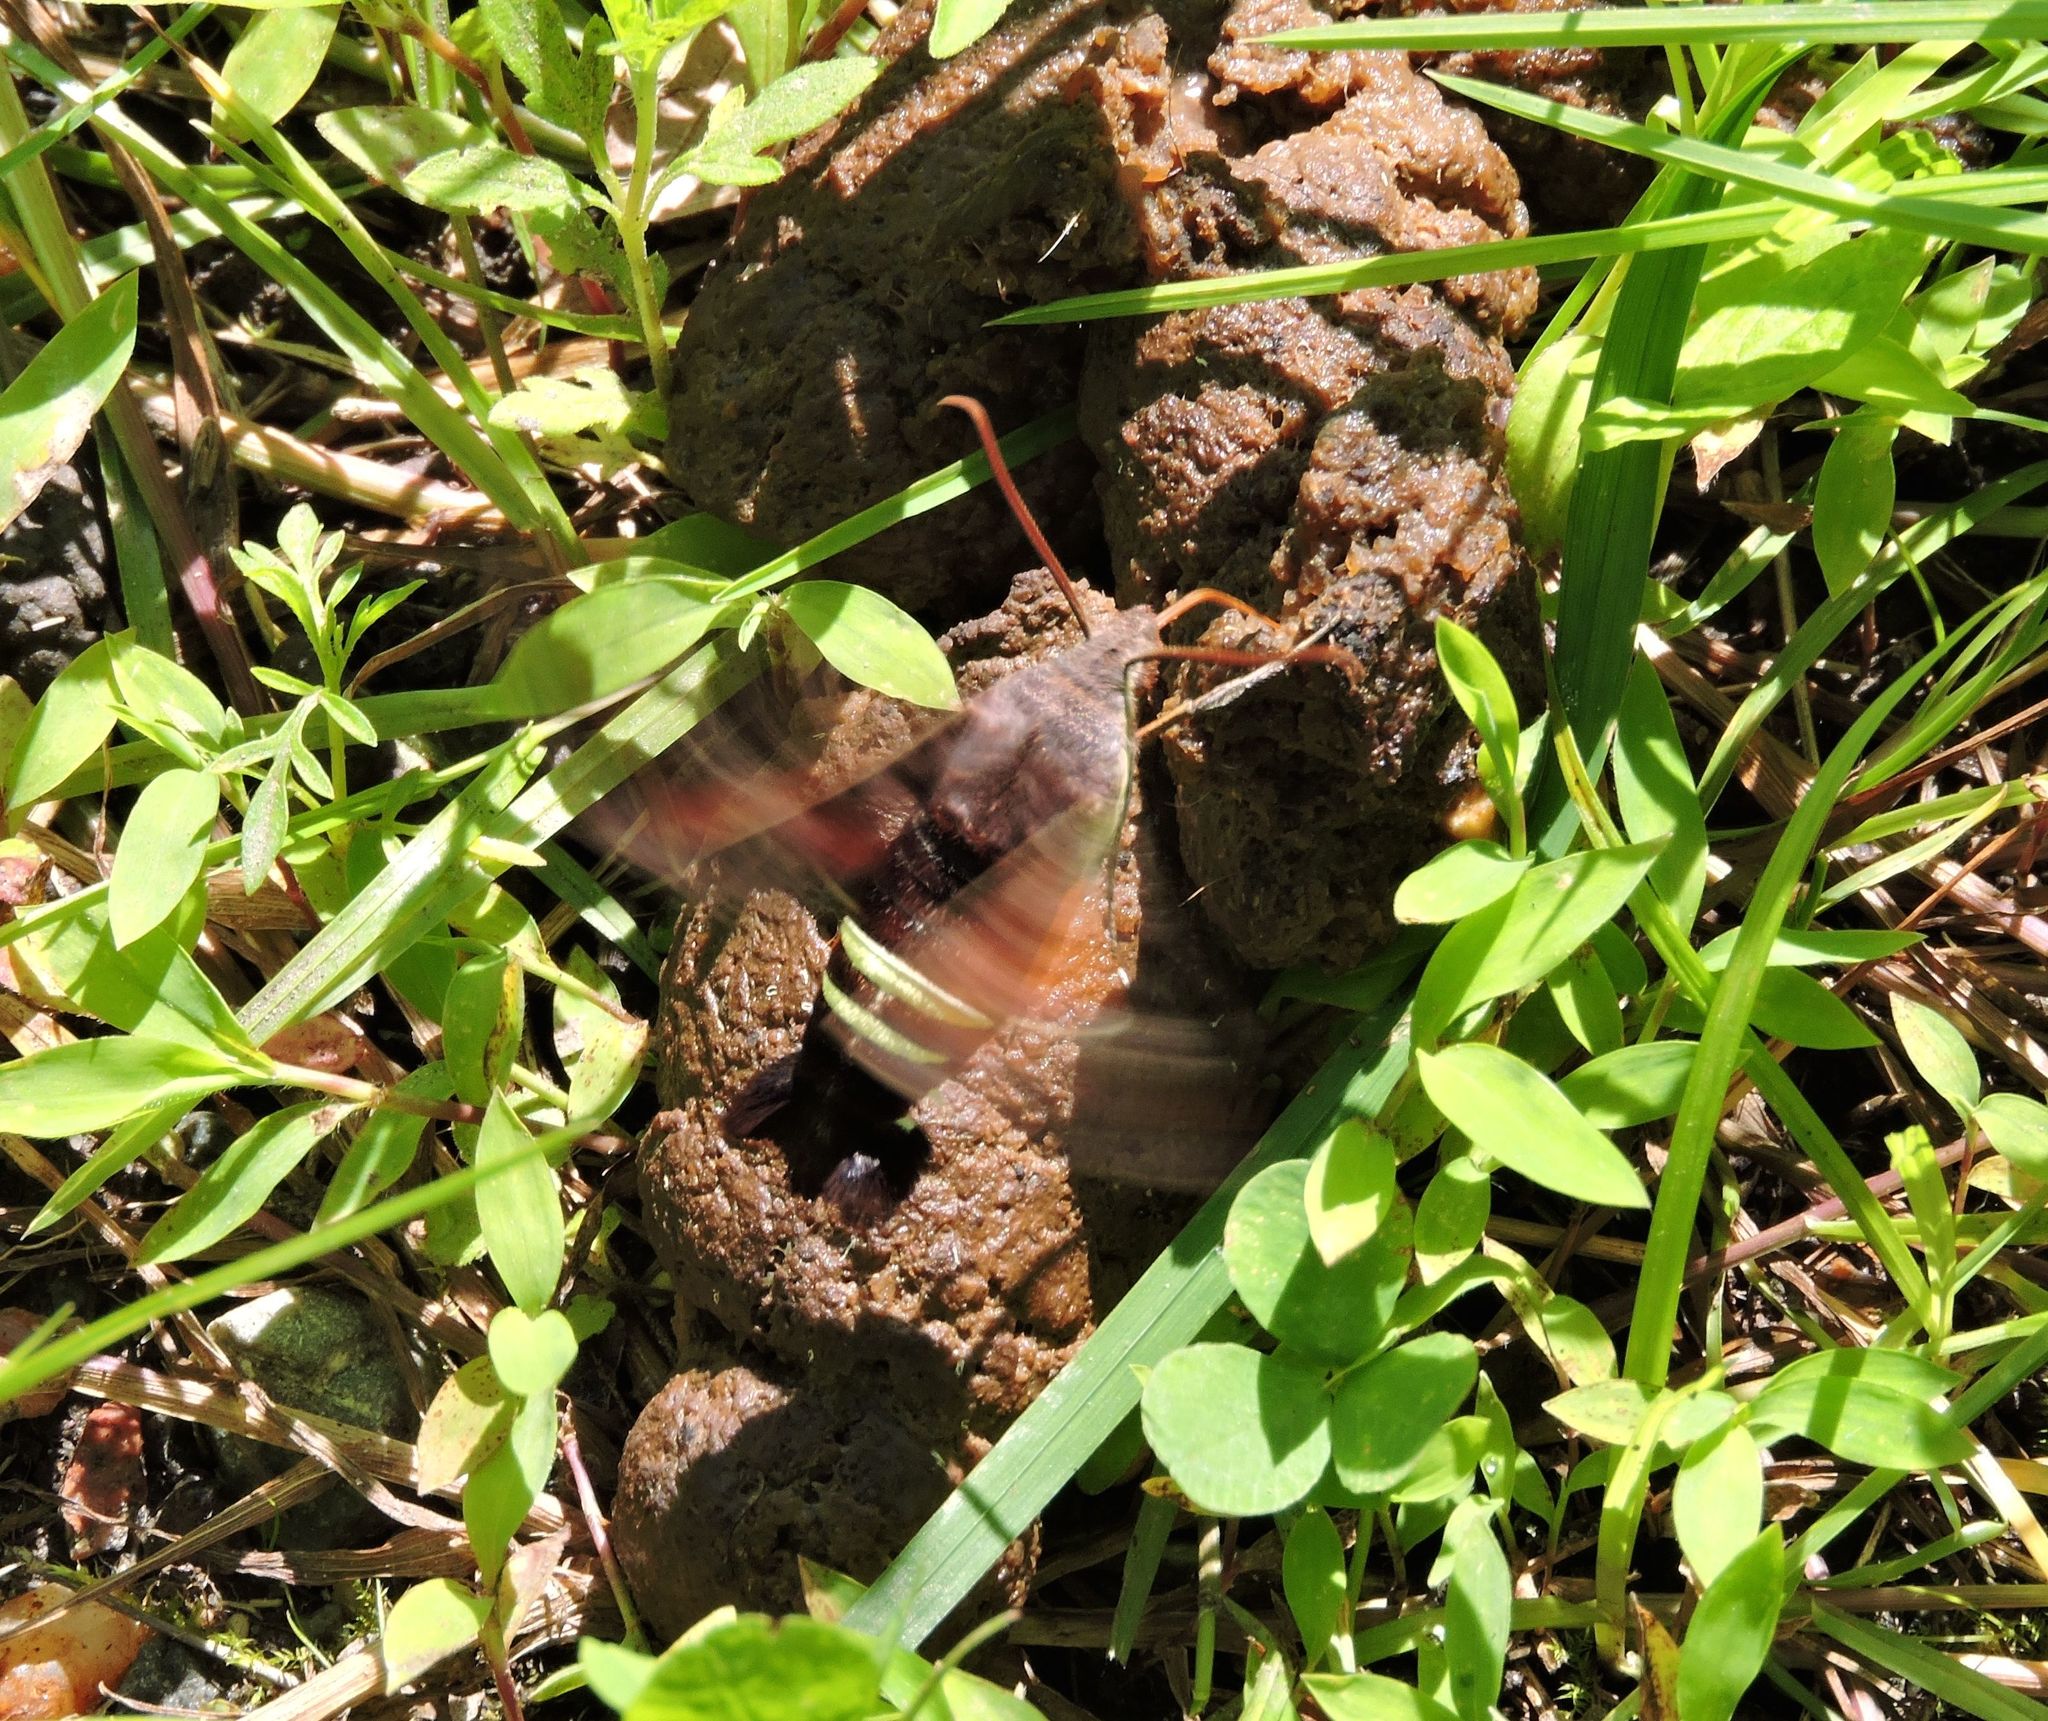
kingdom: Animalia
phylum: Arthropoda
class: Insecta
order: Lepidoptera
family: Sphingidae
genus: Amphion
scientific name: Amphion floridensis
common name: Nessus sphinx
